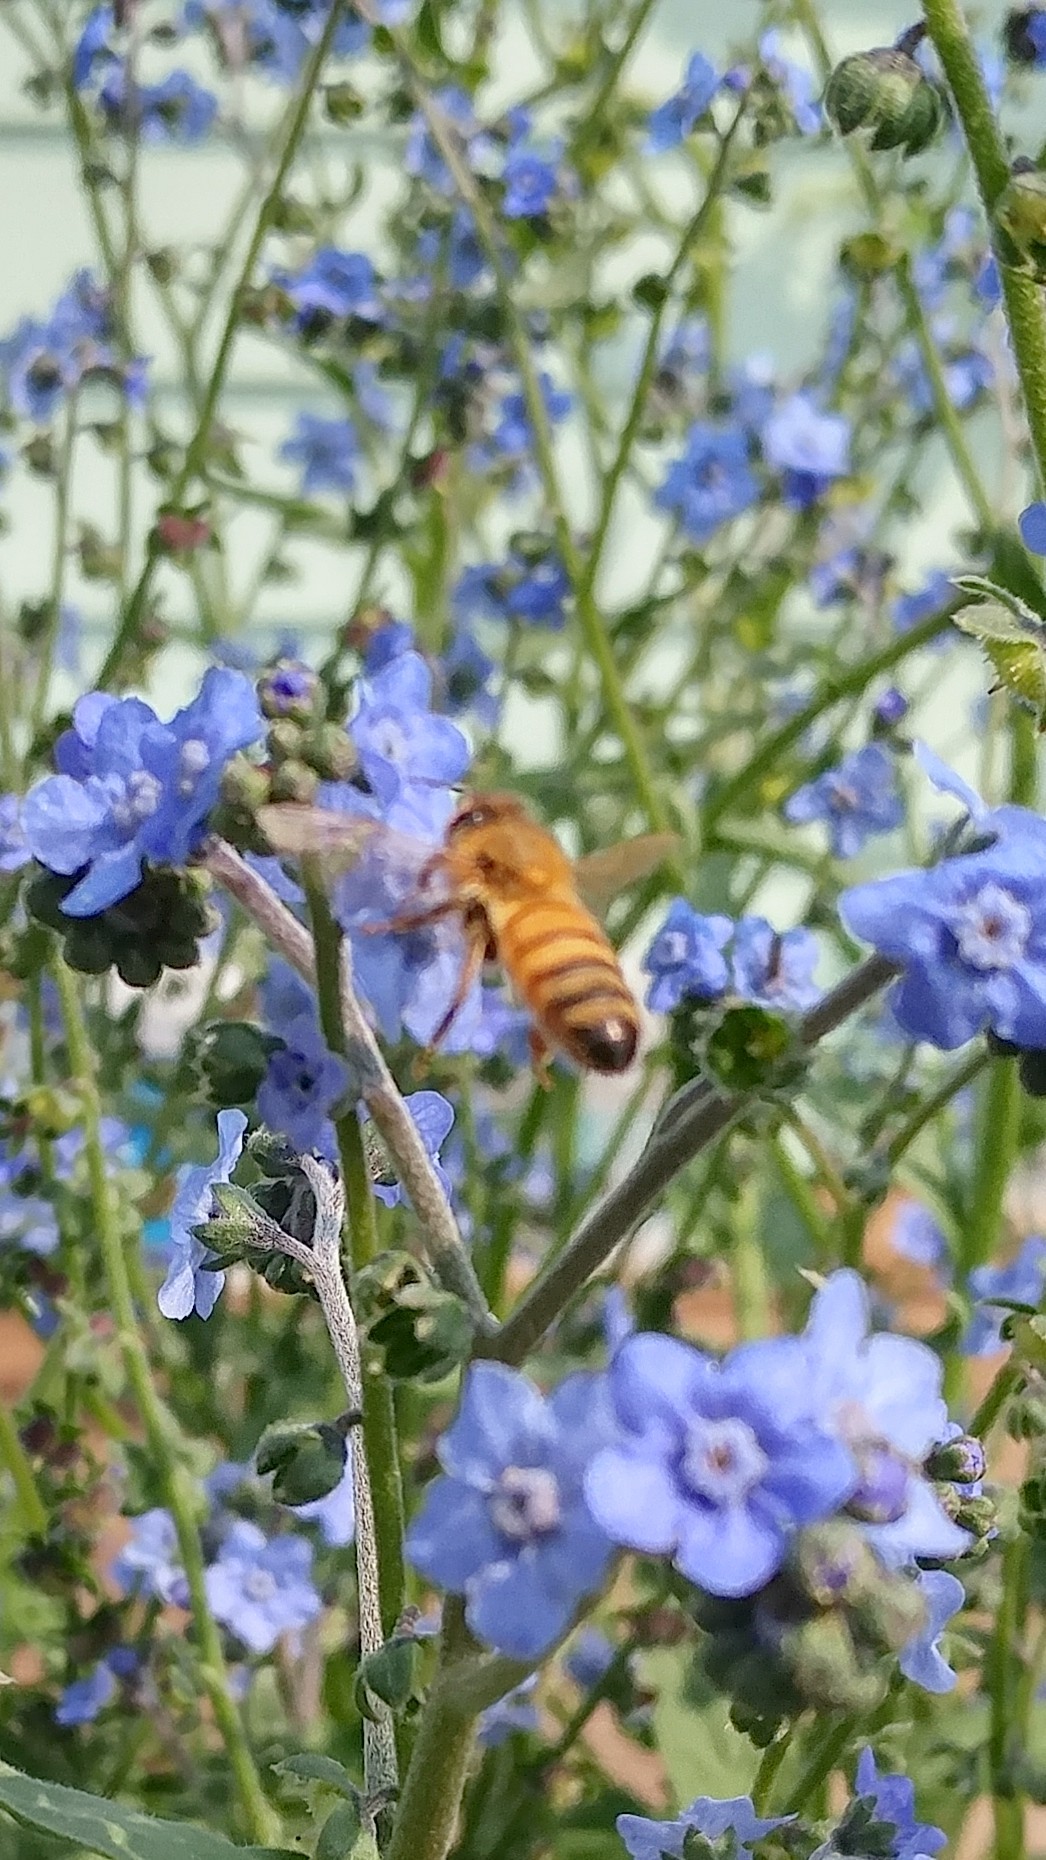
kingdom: Animalia
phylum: Arthropoda
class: Insecta
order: Hymenoptera
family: Apidae
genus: Apis
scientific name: Apis mellifera
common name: Honey bee
